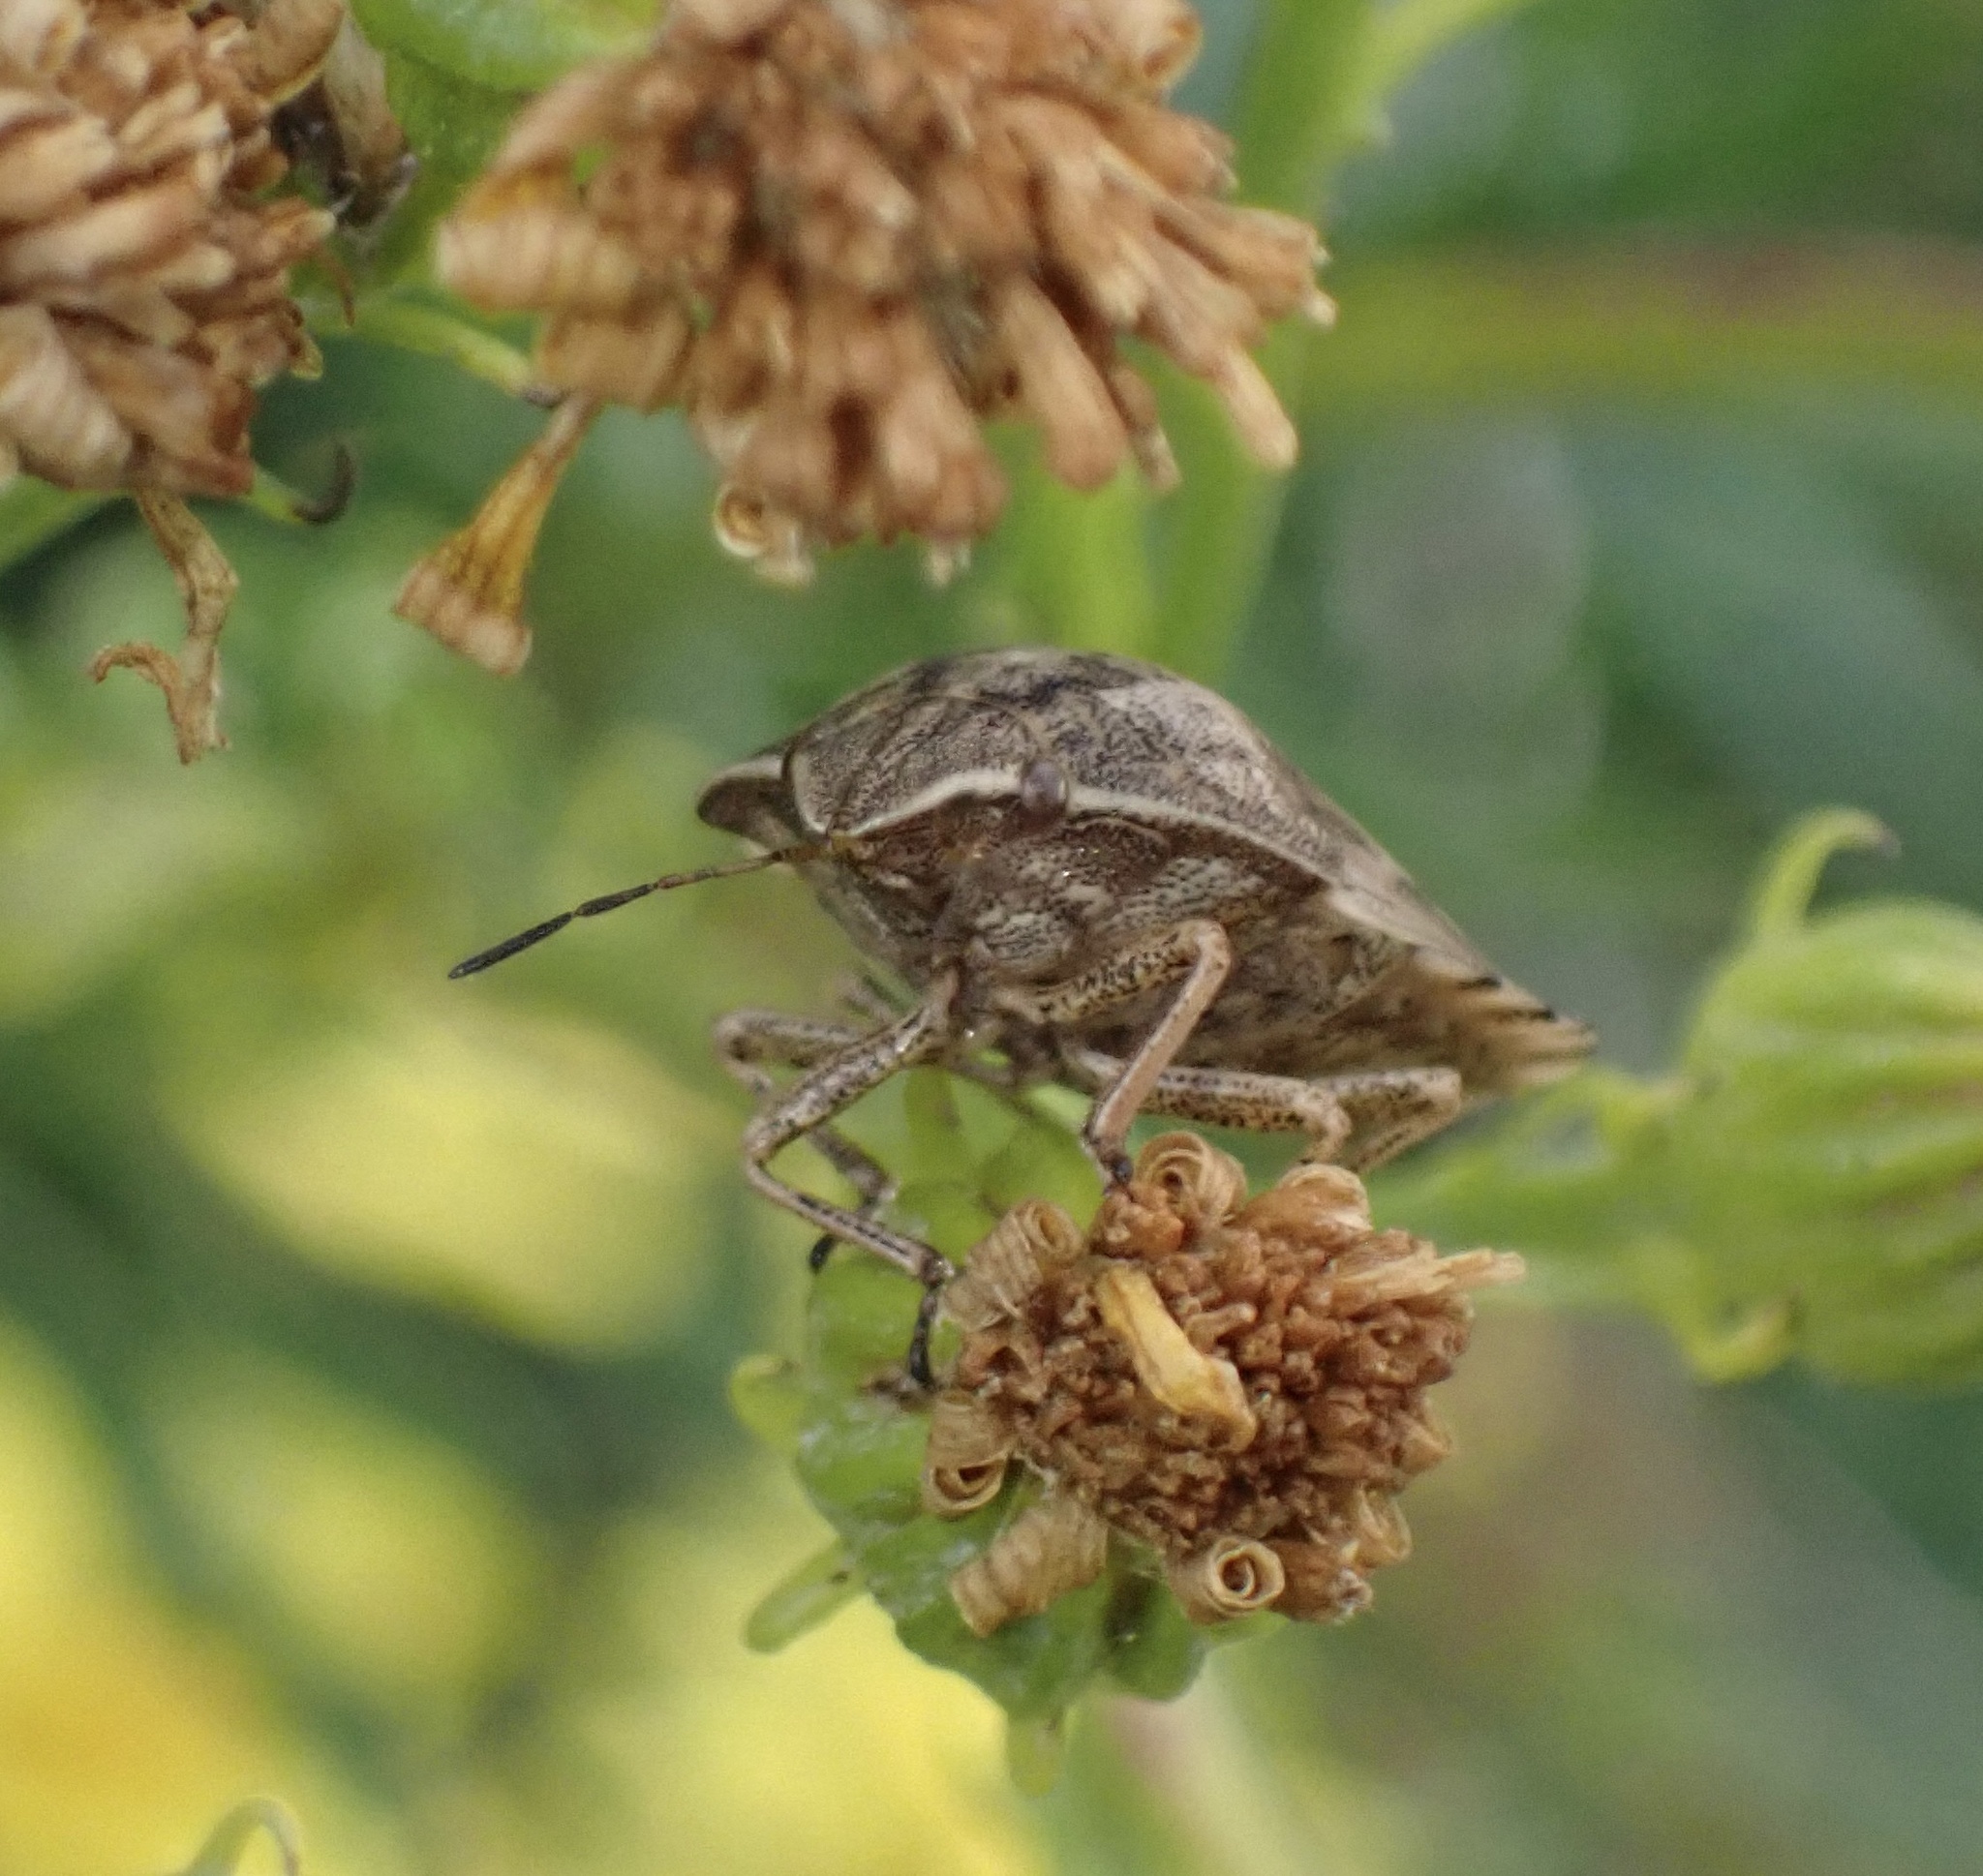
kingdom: Animalia
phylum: Arthropoda
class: Insecta
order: Hemiptera
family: Scutelleridae
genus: Eurygaster
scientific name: Eurygaster testudinaria
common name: Tortoise bug
